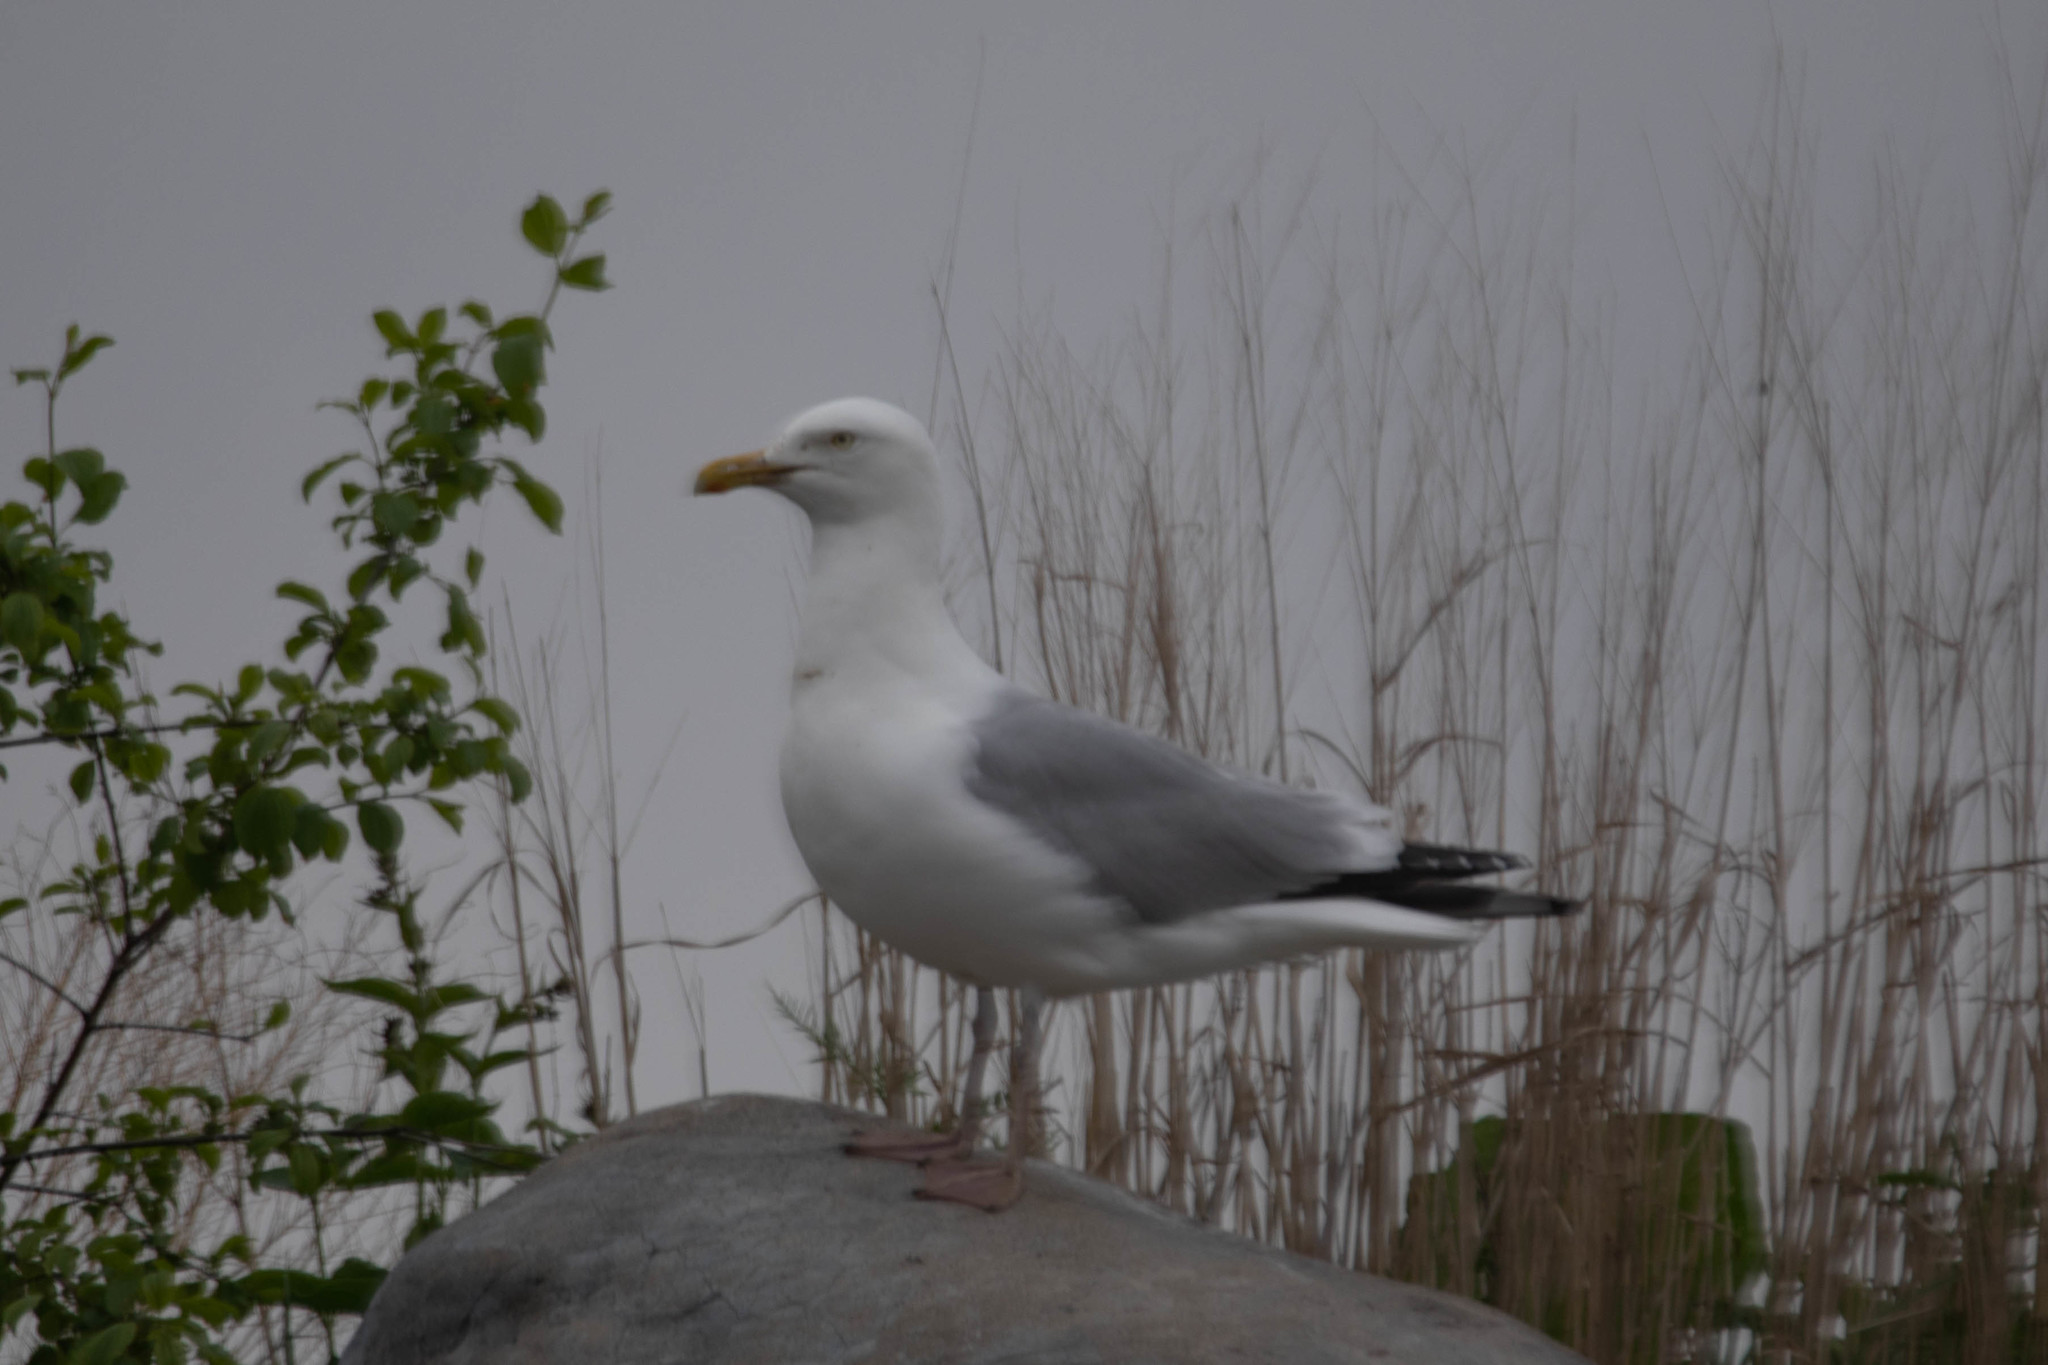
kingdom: Animalia
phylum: Chordata
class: Aves
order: Charadriiformes
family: Laridae
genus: Larus
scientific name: Larus argentatus
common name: Herring gull
